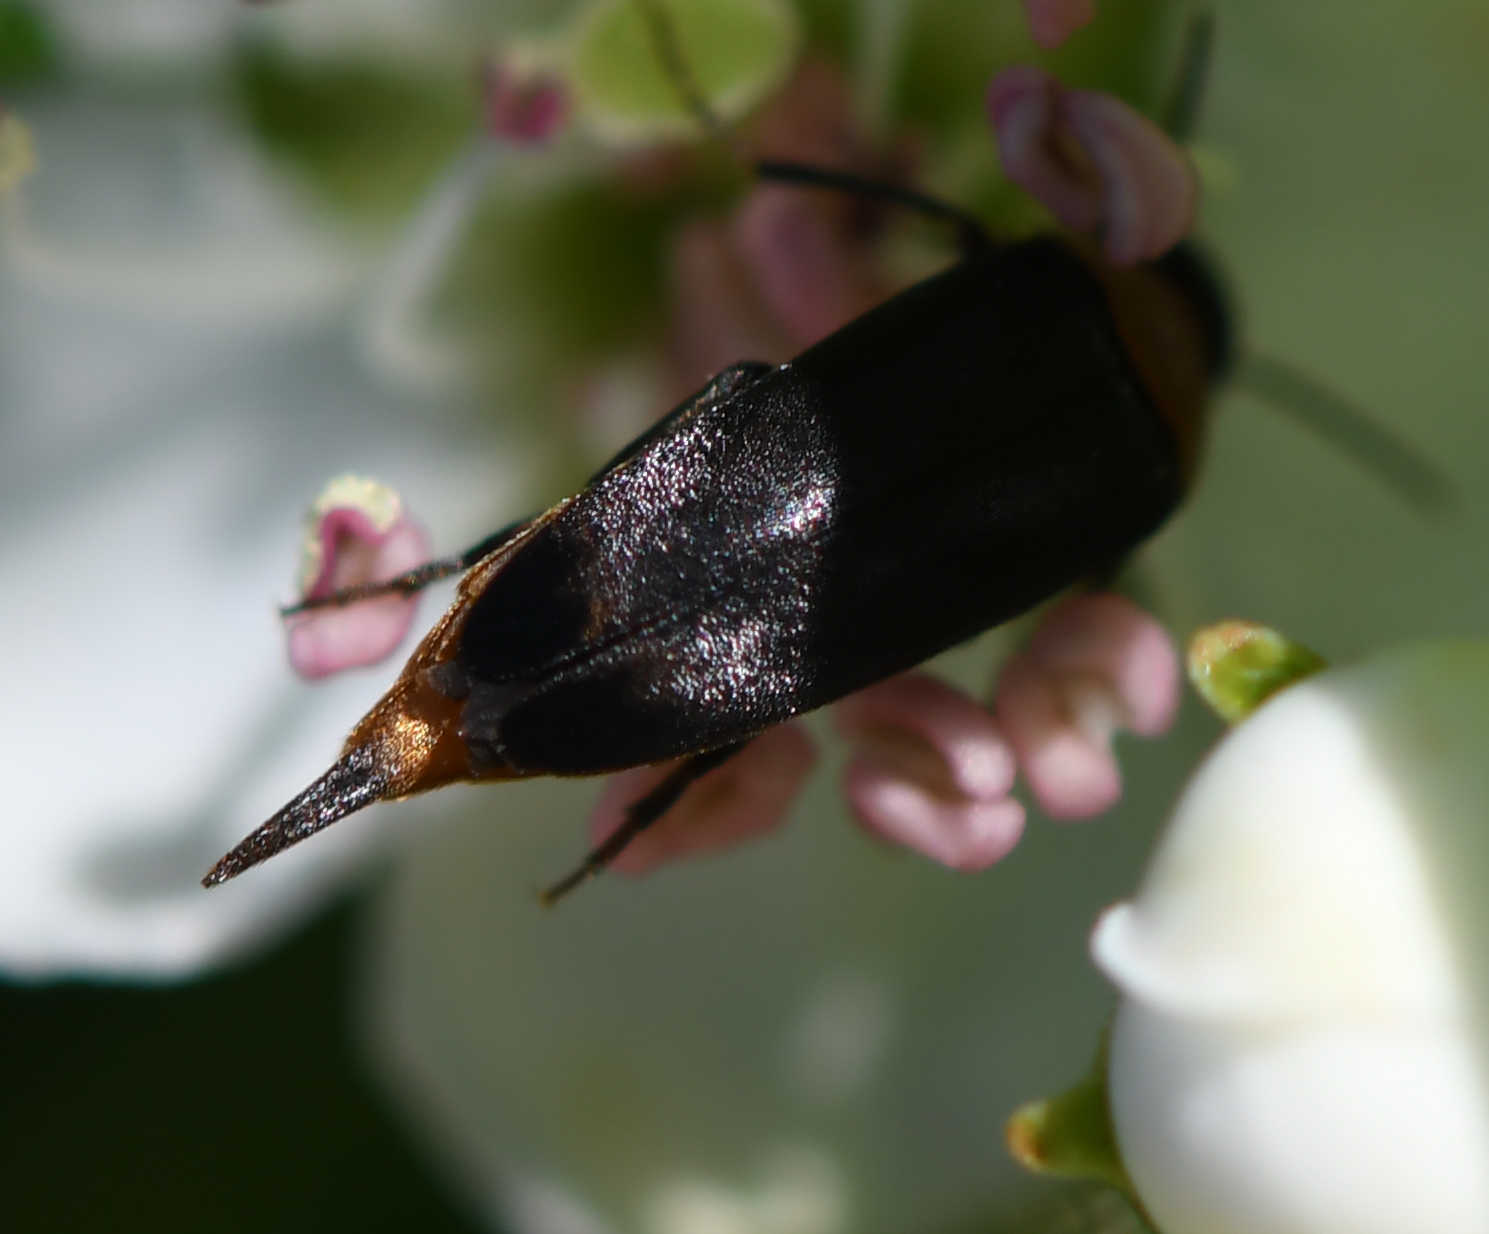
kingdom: Animalia
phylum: Arthropoda
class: Insecta
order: Coleoptera
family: Mordellidae
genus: Mordellochroa
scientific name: Mordellochroa abdominalis
